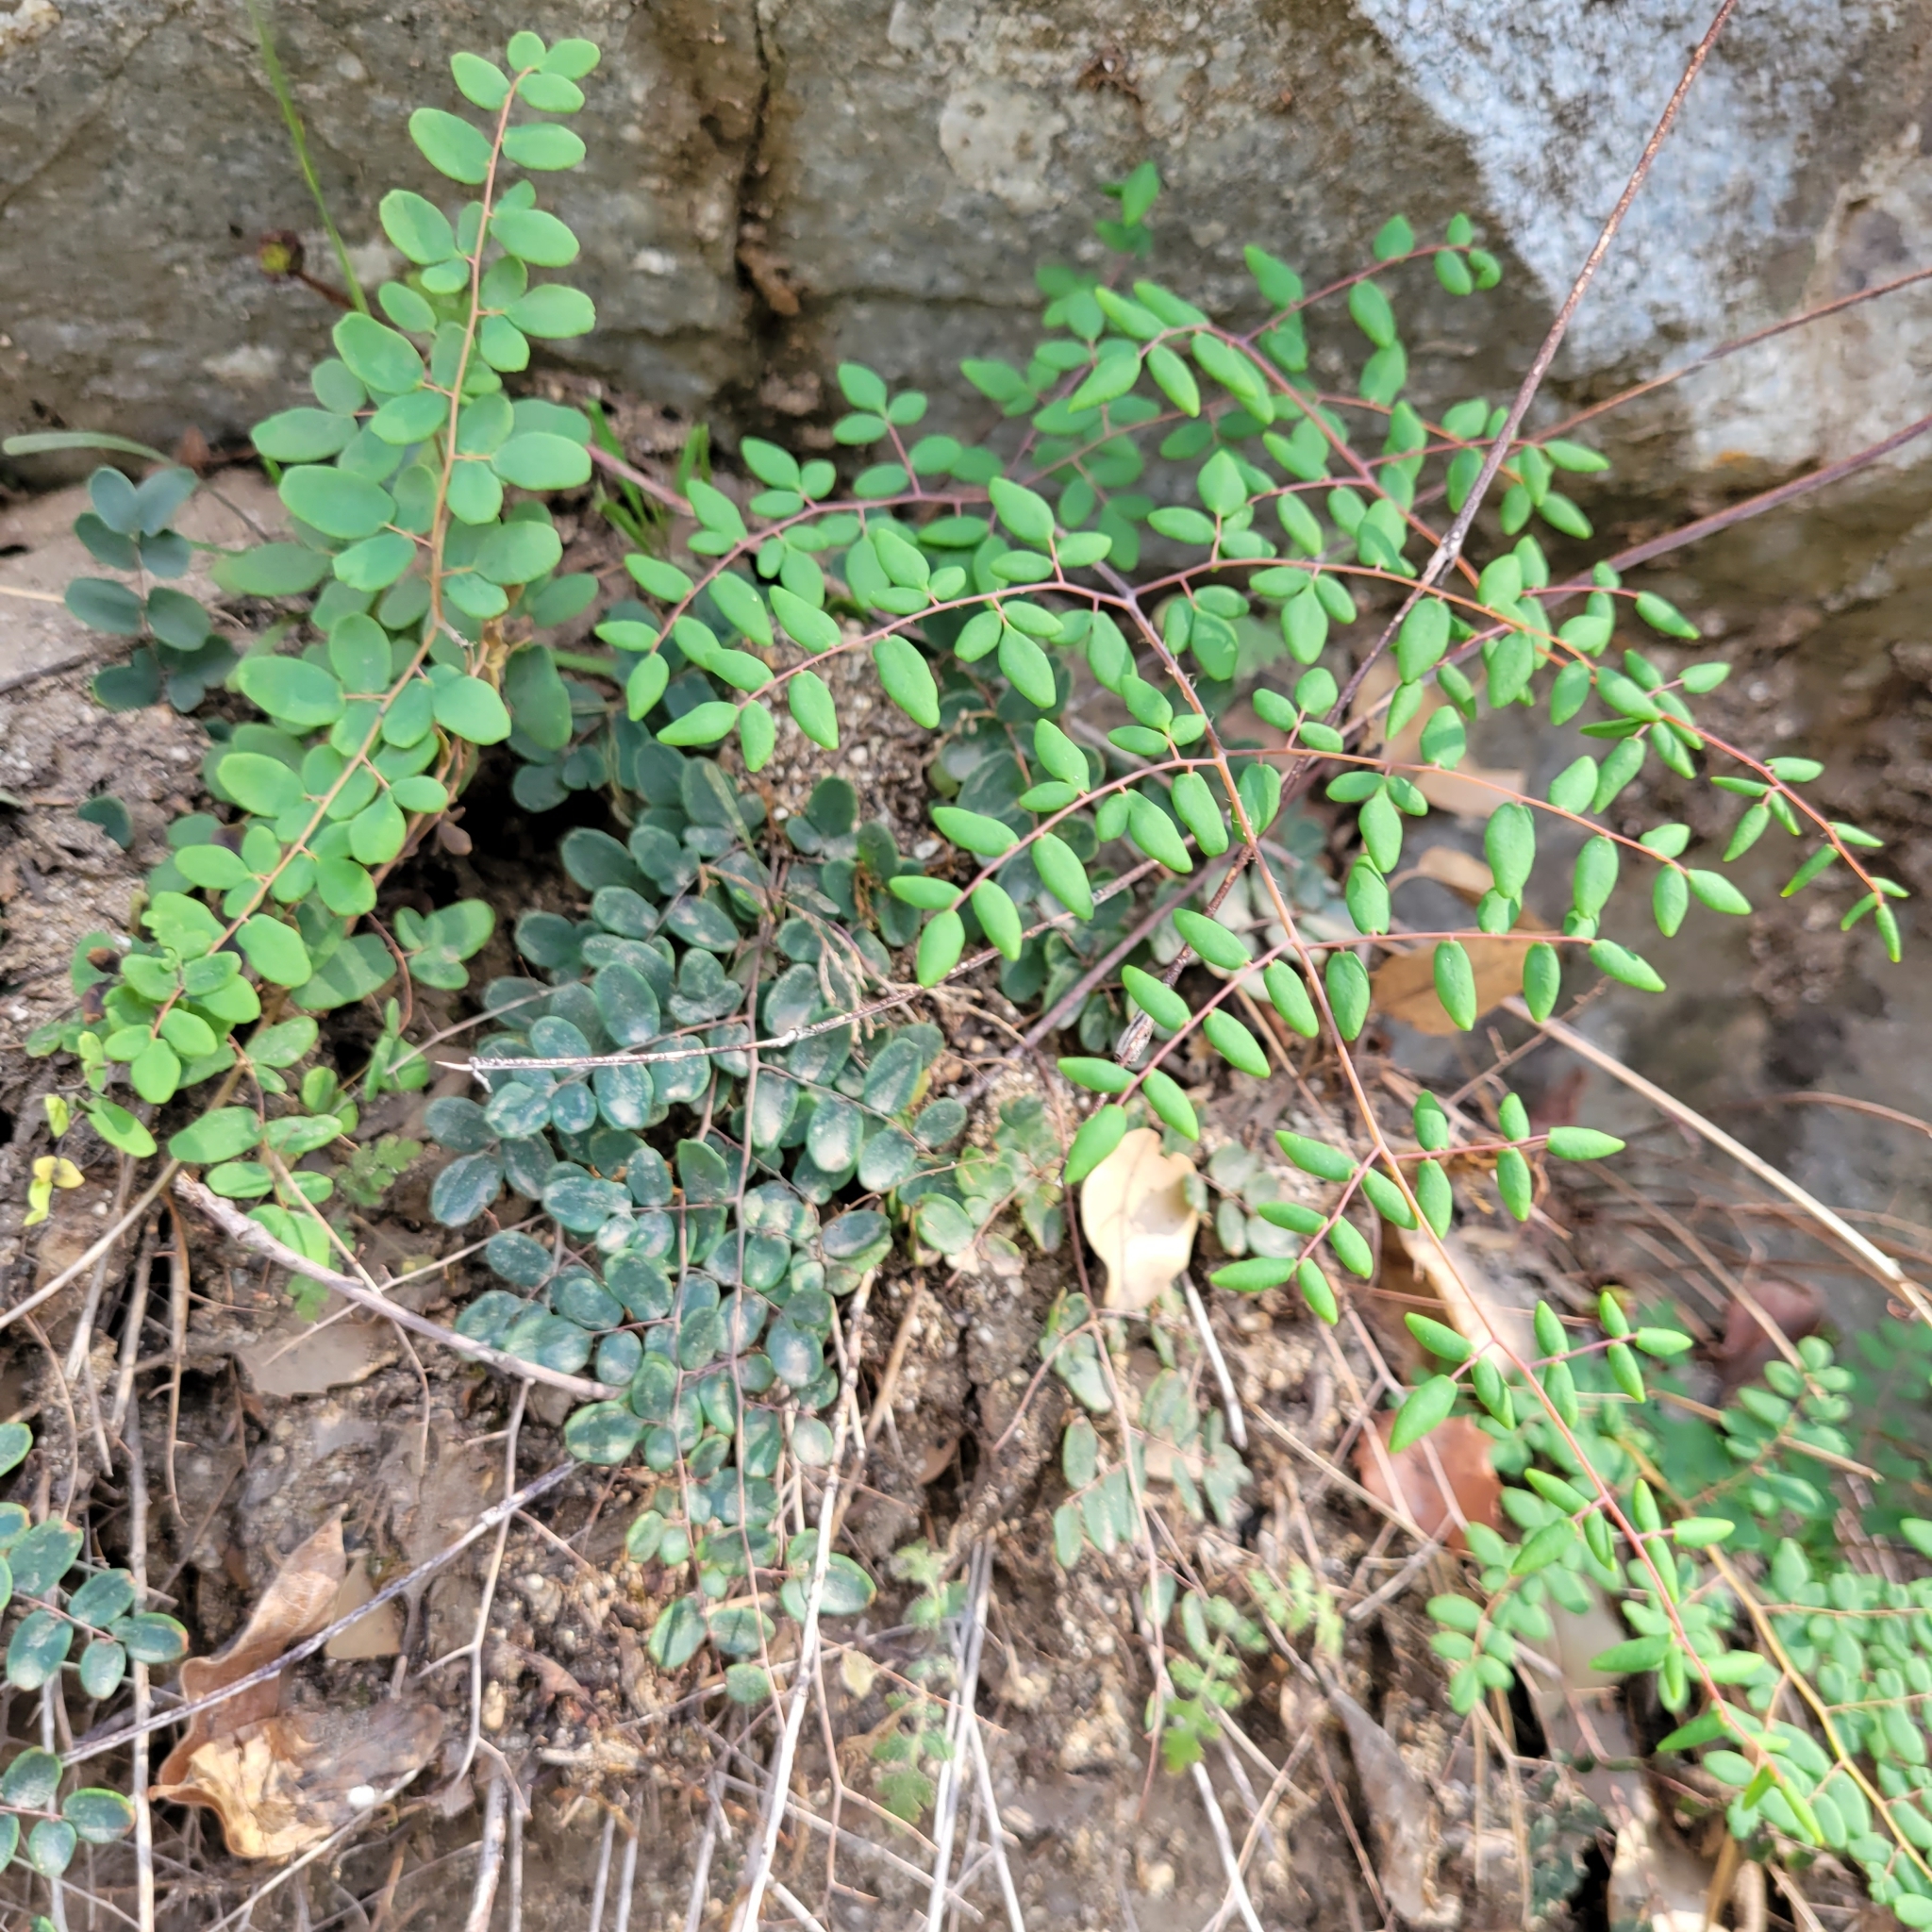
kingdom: Plantae
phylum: Tracheophyta
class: Polypodiopsida
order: Polypodiales
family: Pteridaceae
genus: Pellaea
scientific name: Pellaea andromedifolia
